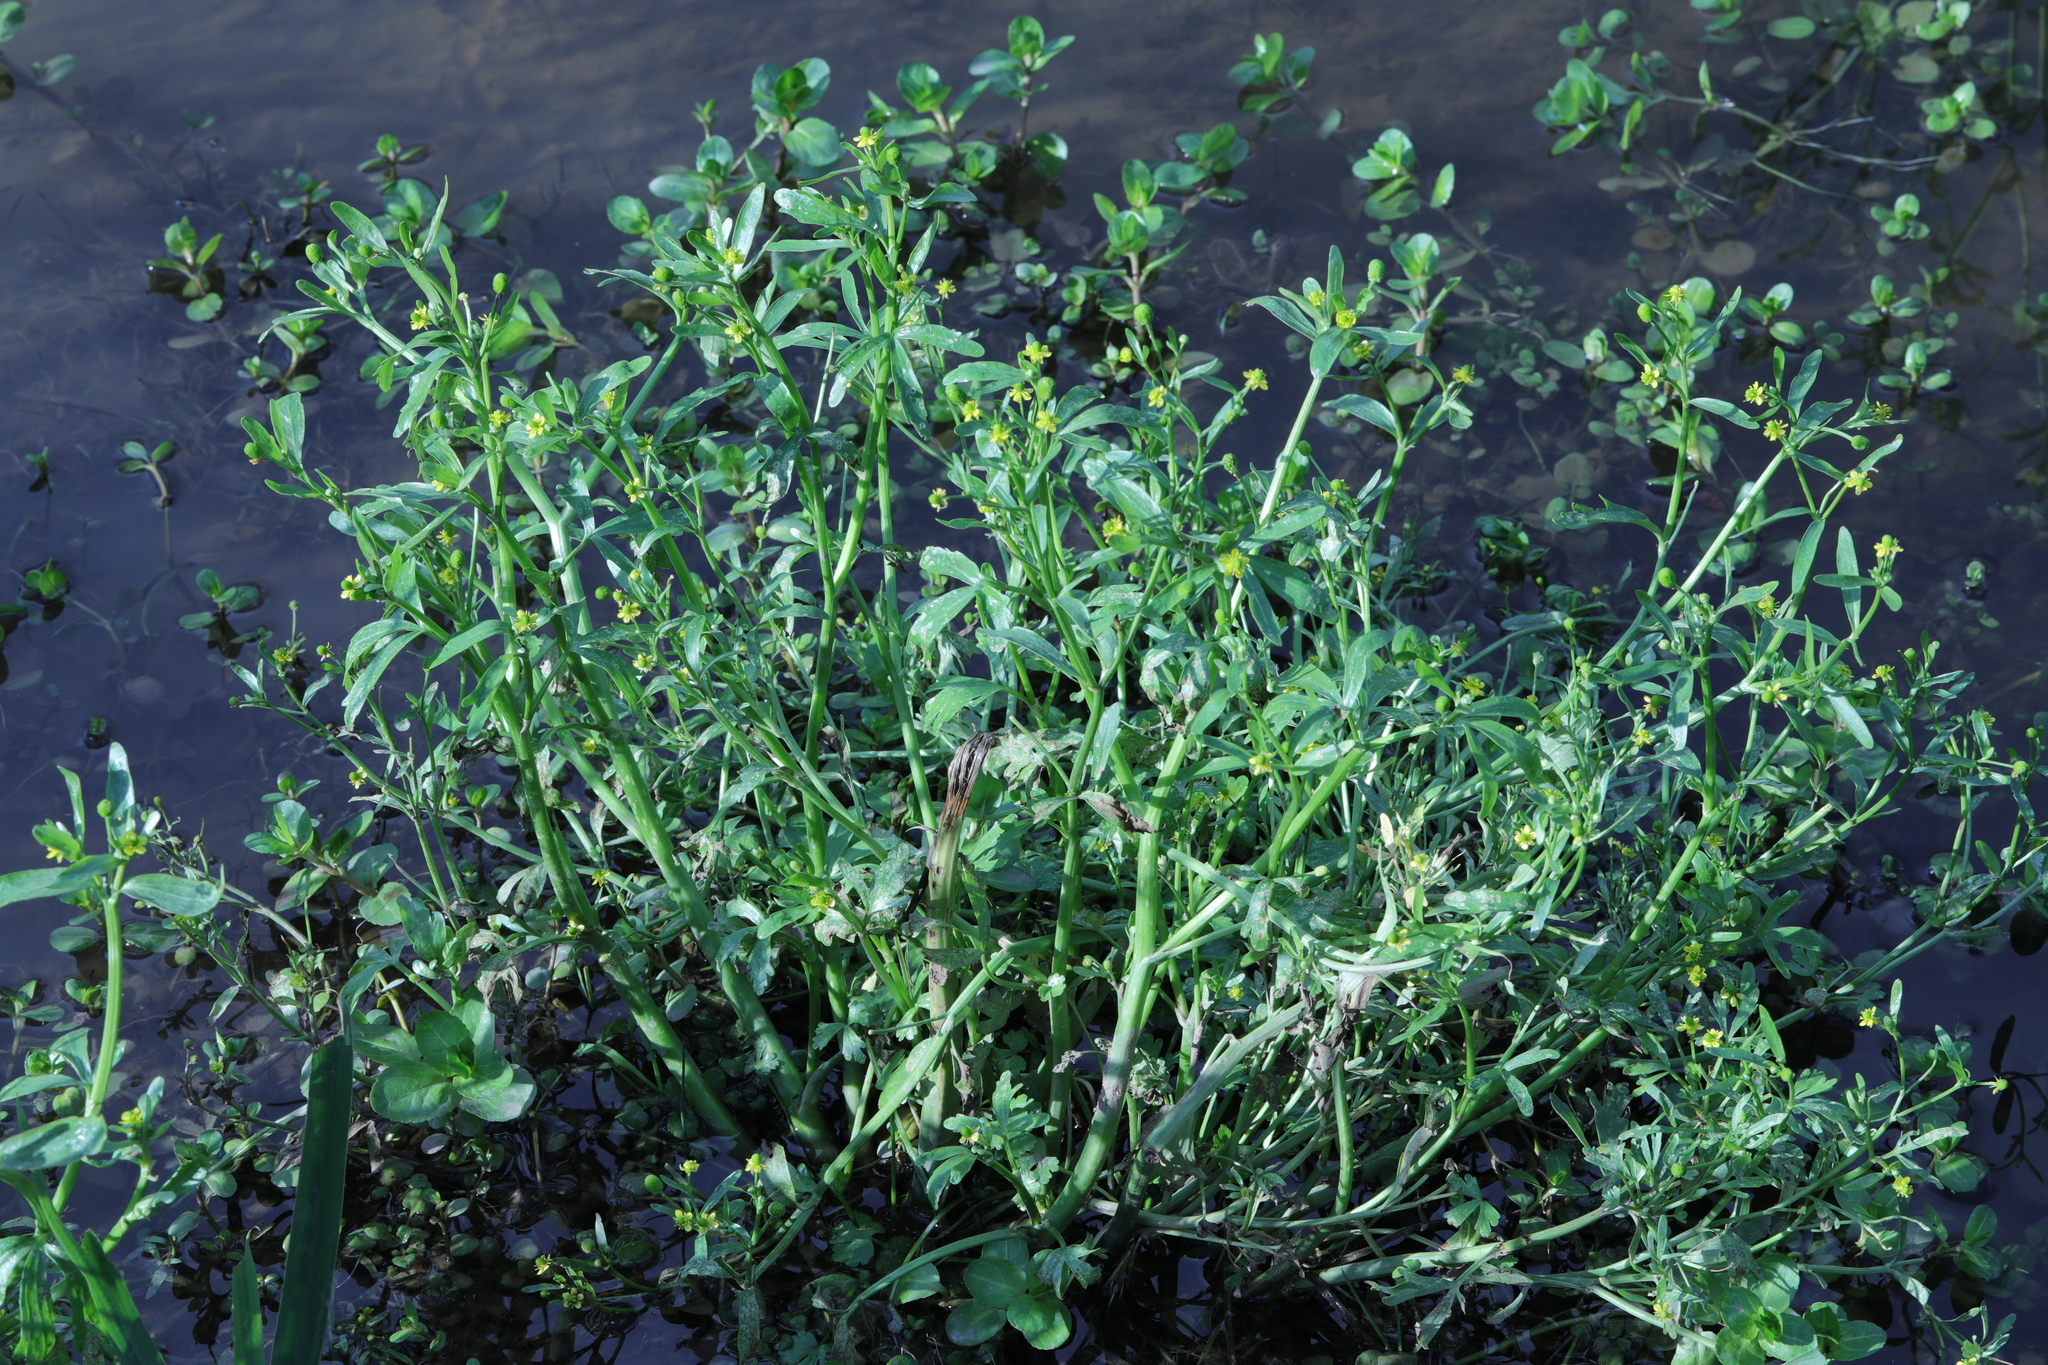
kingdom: Plantae
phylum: Tracheophyta
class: Magnoliopsida
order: Ranunculales
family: Ranunculaceae
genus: Ranunculus
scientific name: Ranunculus sceleratus
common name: Celery-leaved buttercup
